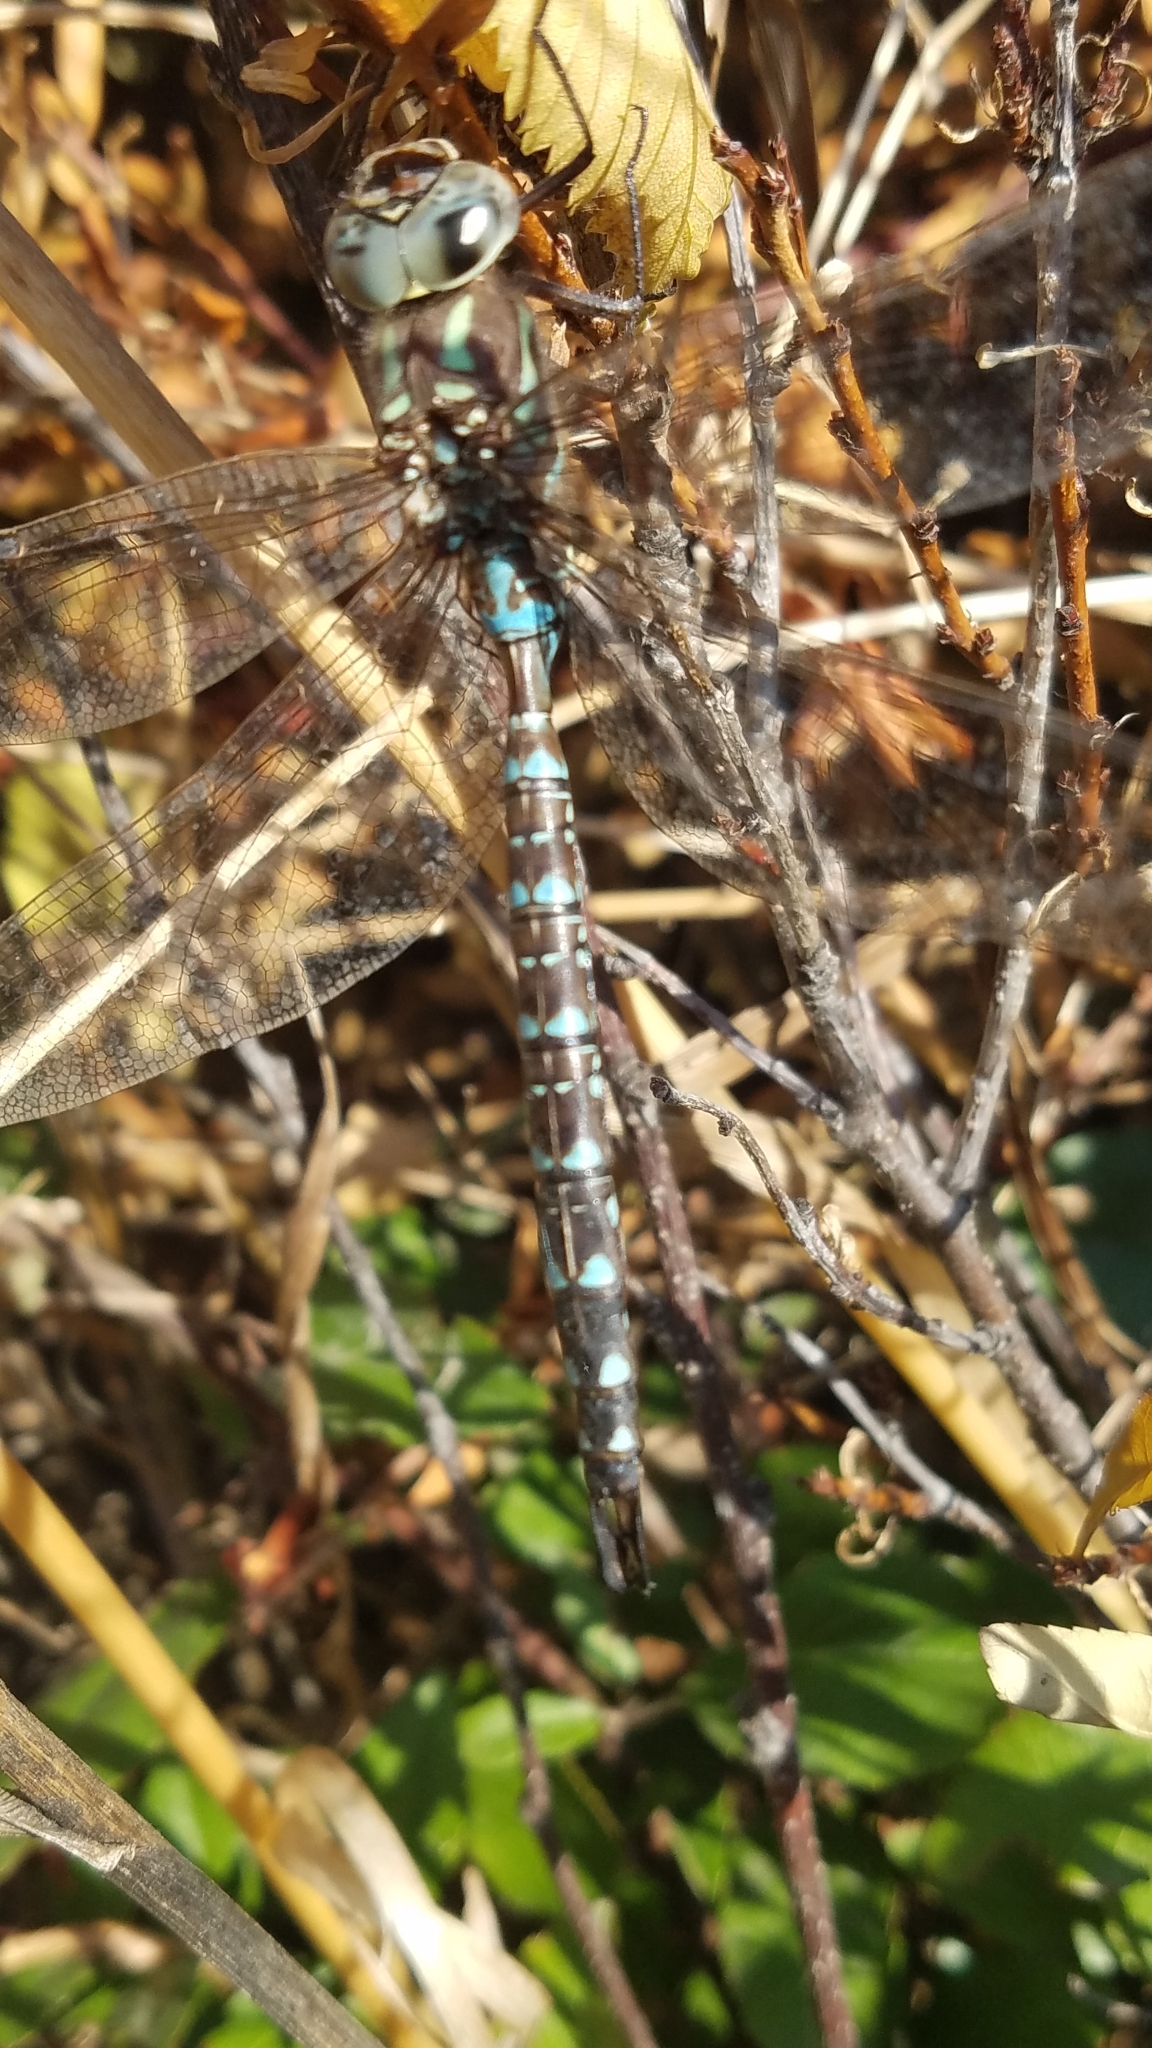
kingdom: Animalia
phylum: Arthropoda
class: Insecta
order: Odonata
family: Aeshnidae
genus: Aeshna
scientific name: Aeshna umbrosa
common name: Shadow darner
